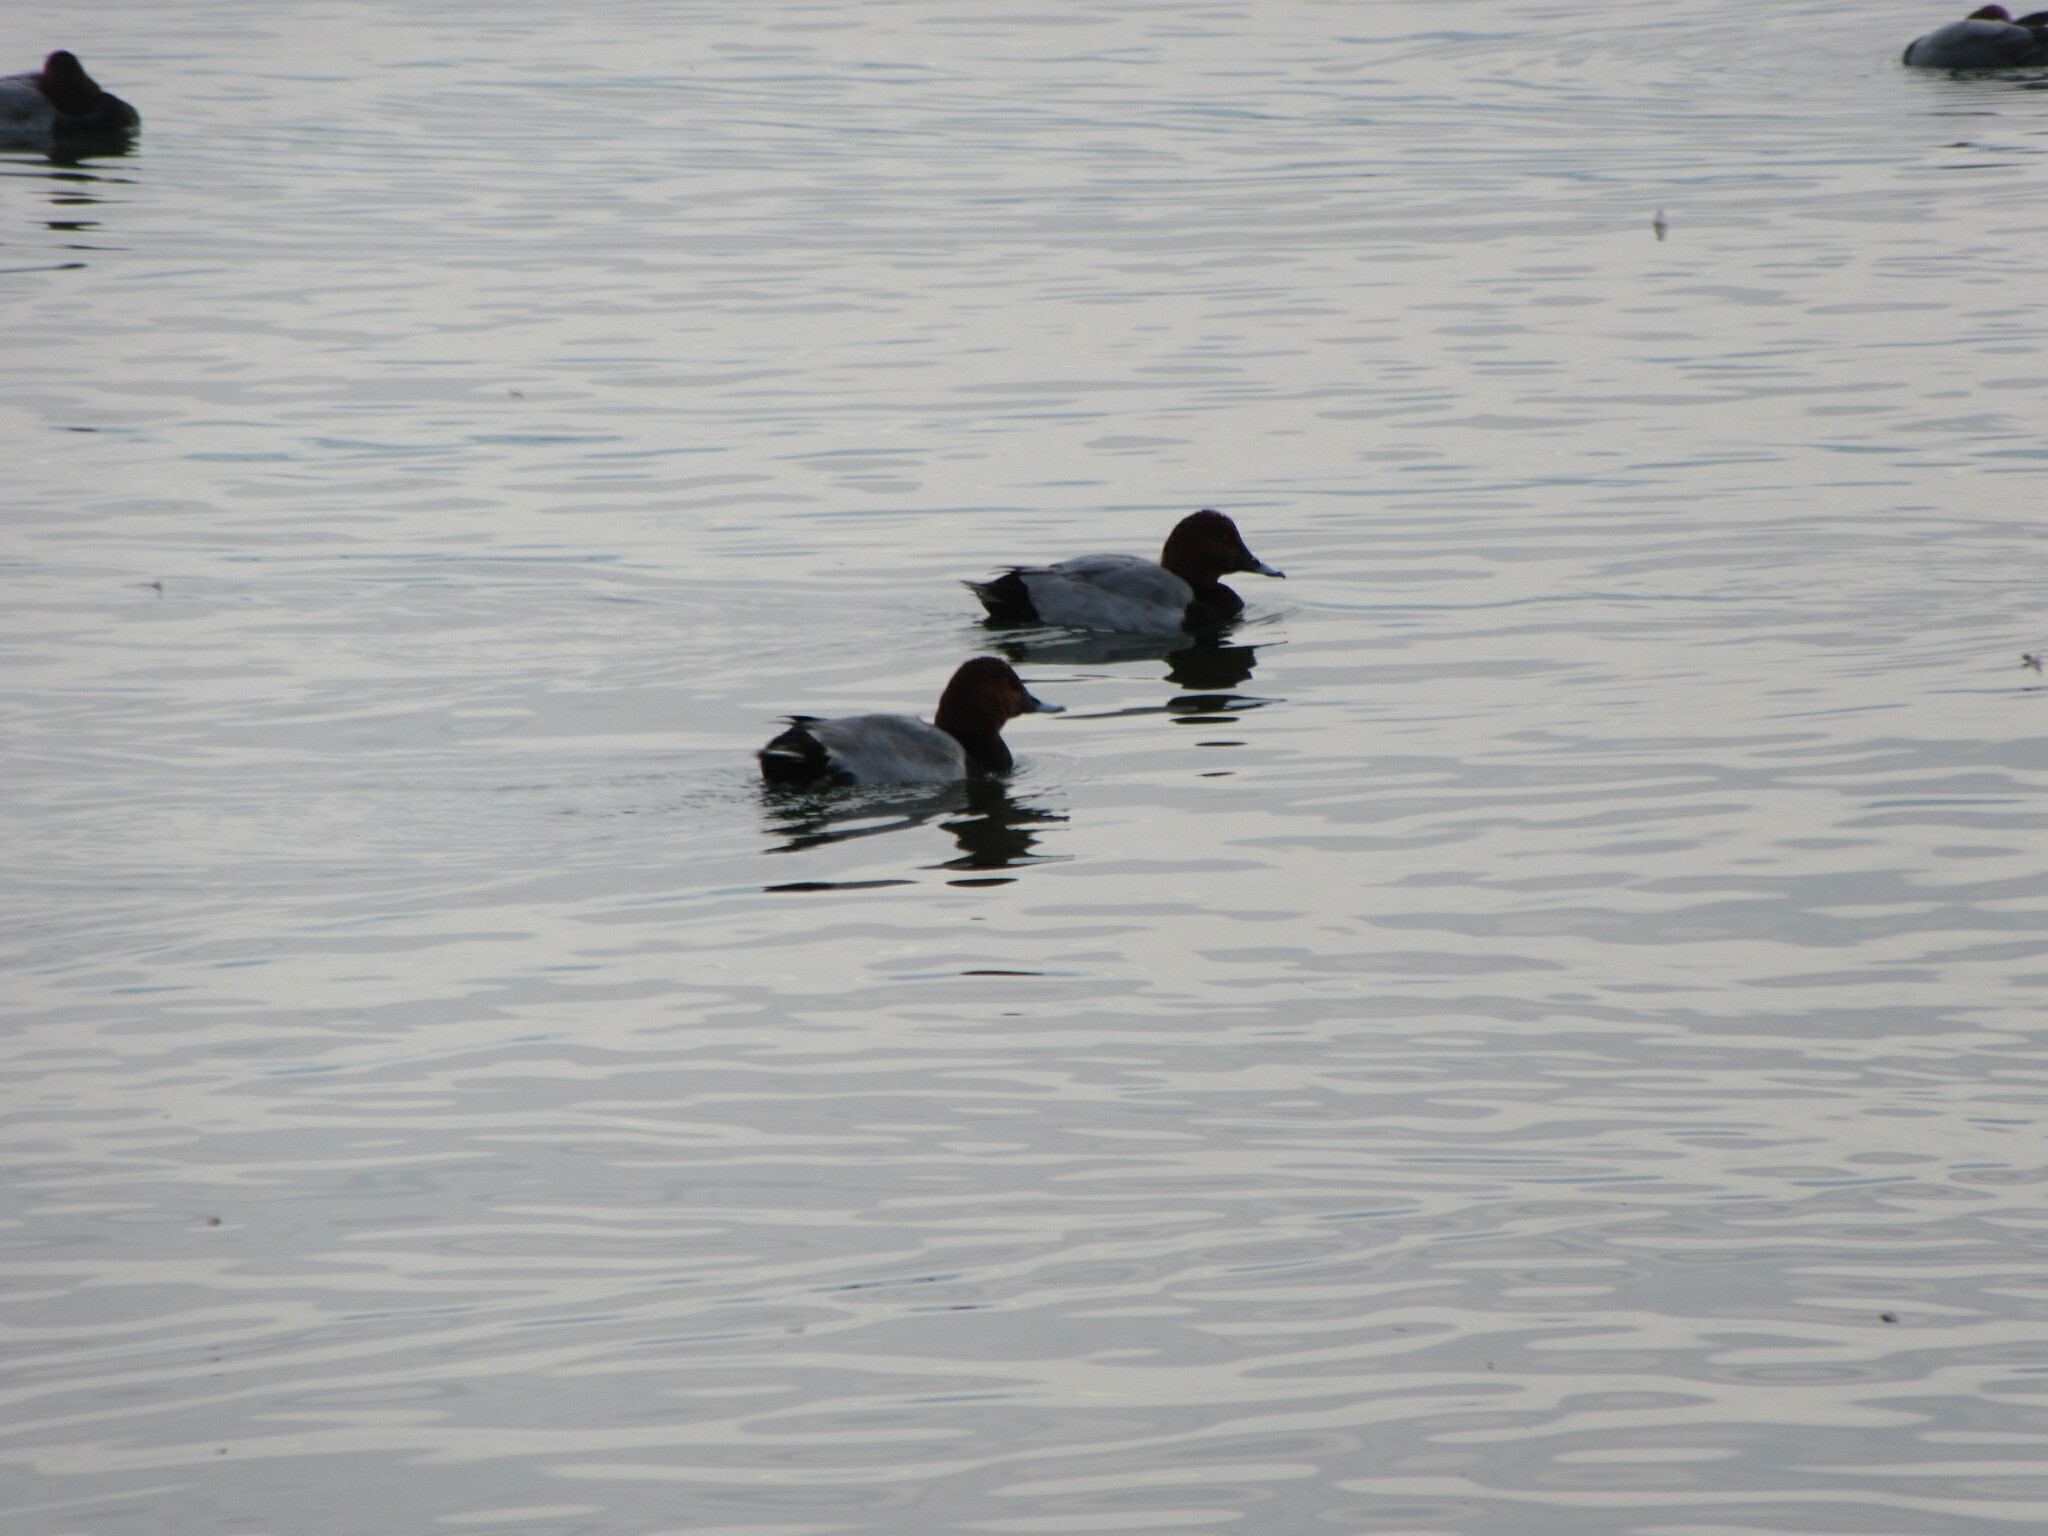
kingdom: Animalia
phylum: Chordata
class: Aves
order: Anseriformes
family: Anatidae
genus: Aythya
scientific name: Aythya ferina
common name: Common pochard
